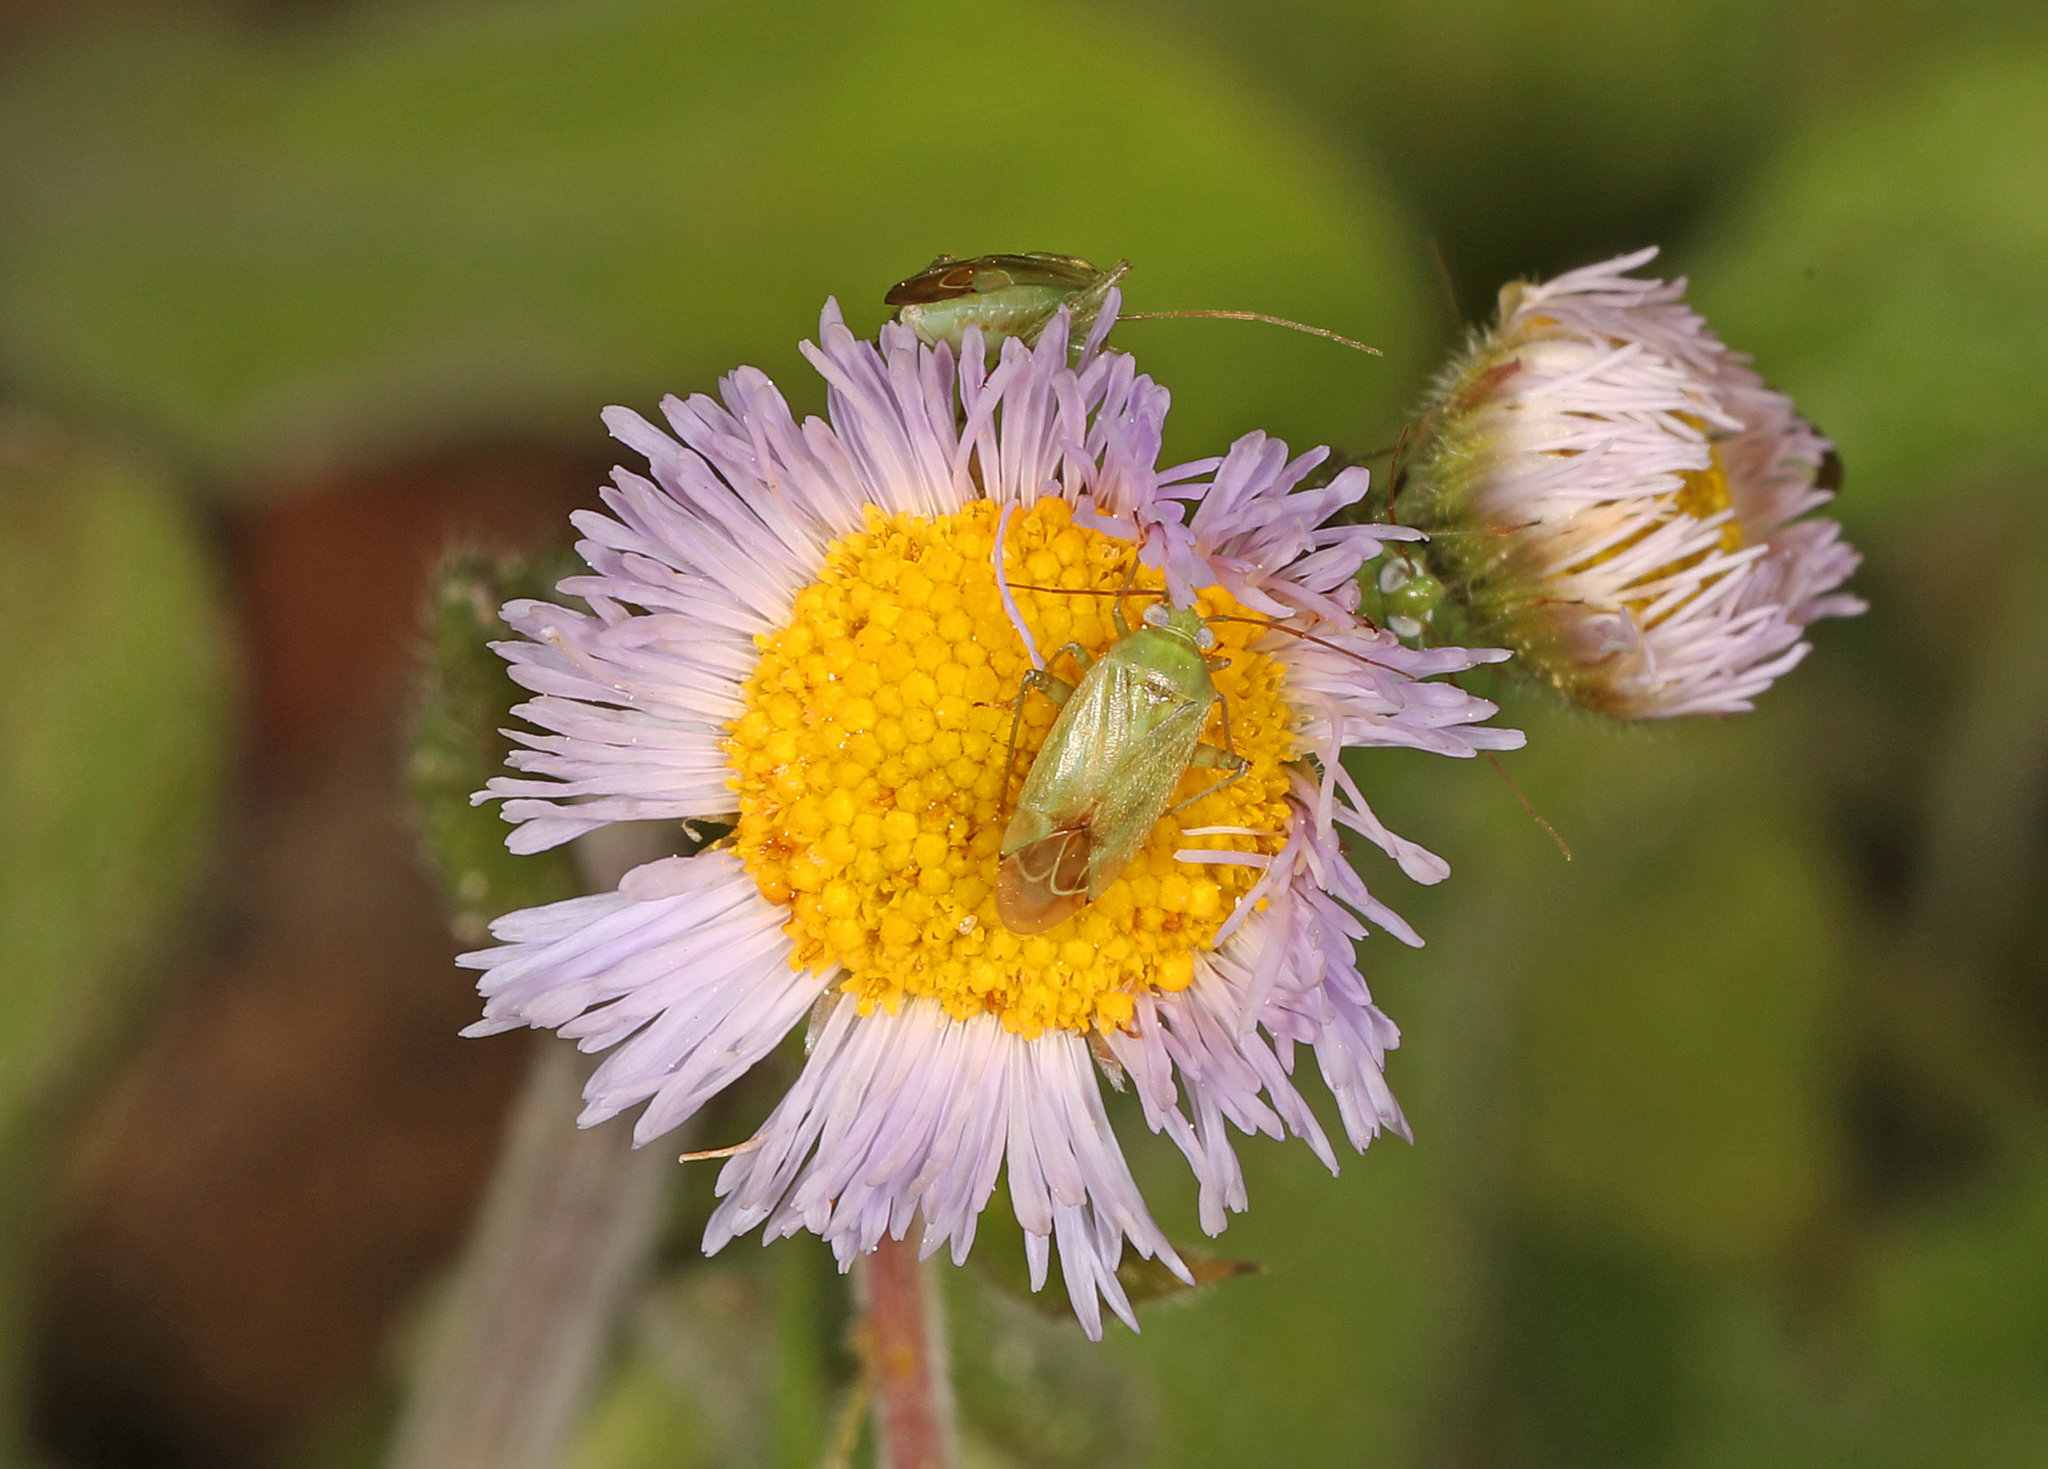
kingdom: Animalia
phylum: Arthropoda
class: Insecta
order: Hemiptera
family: Miridae
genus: Taylorilygus
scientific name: Taylorilygus apicalis
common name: Plant bug
